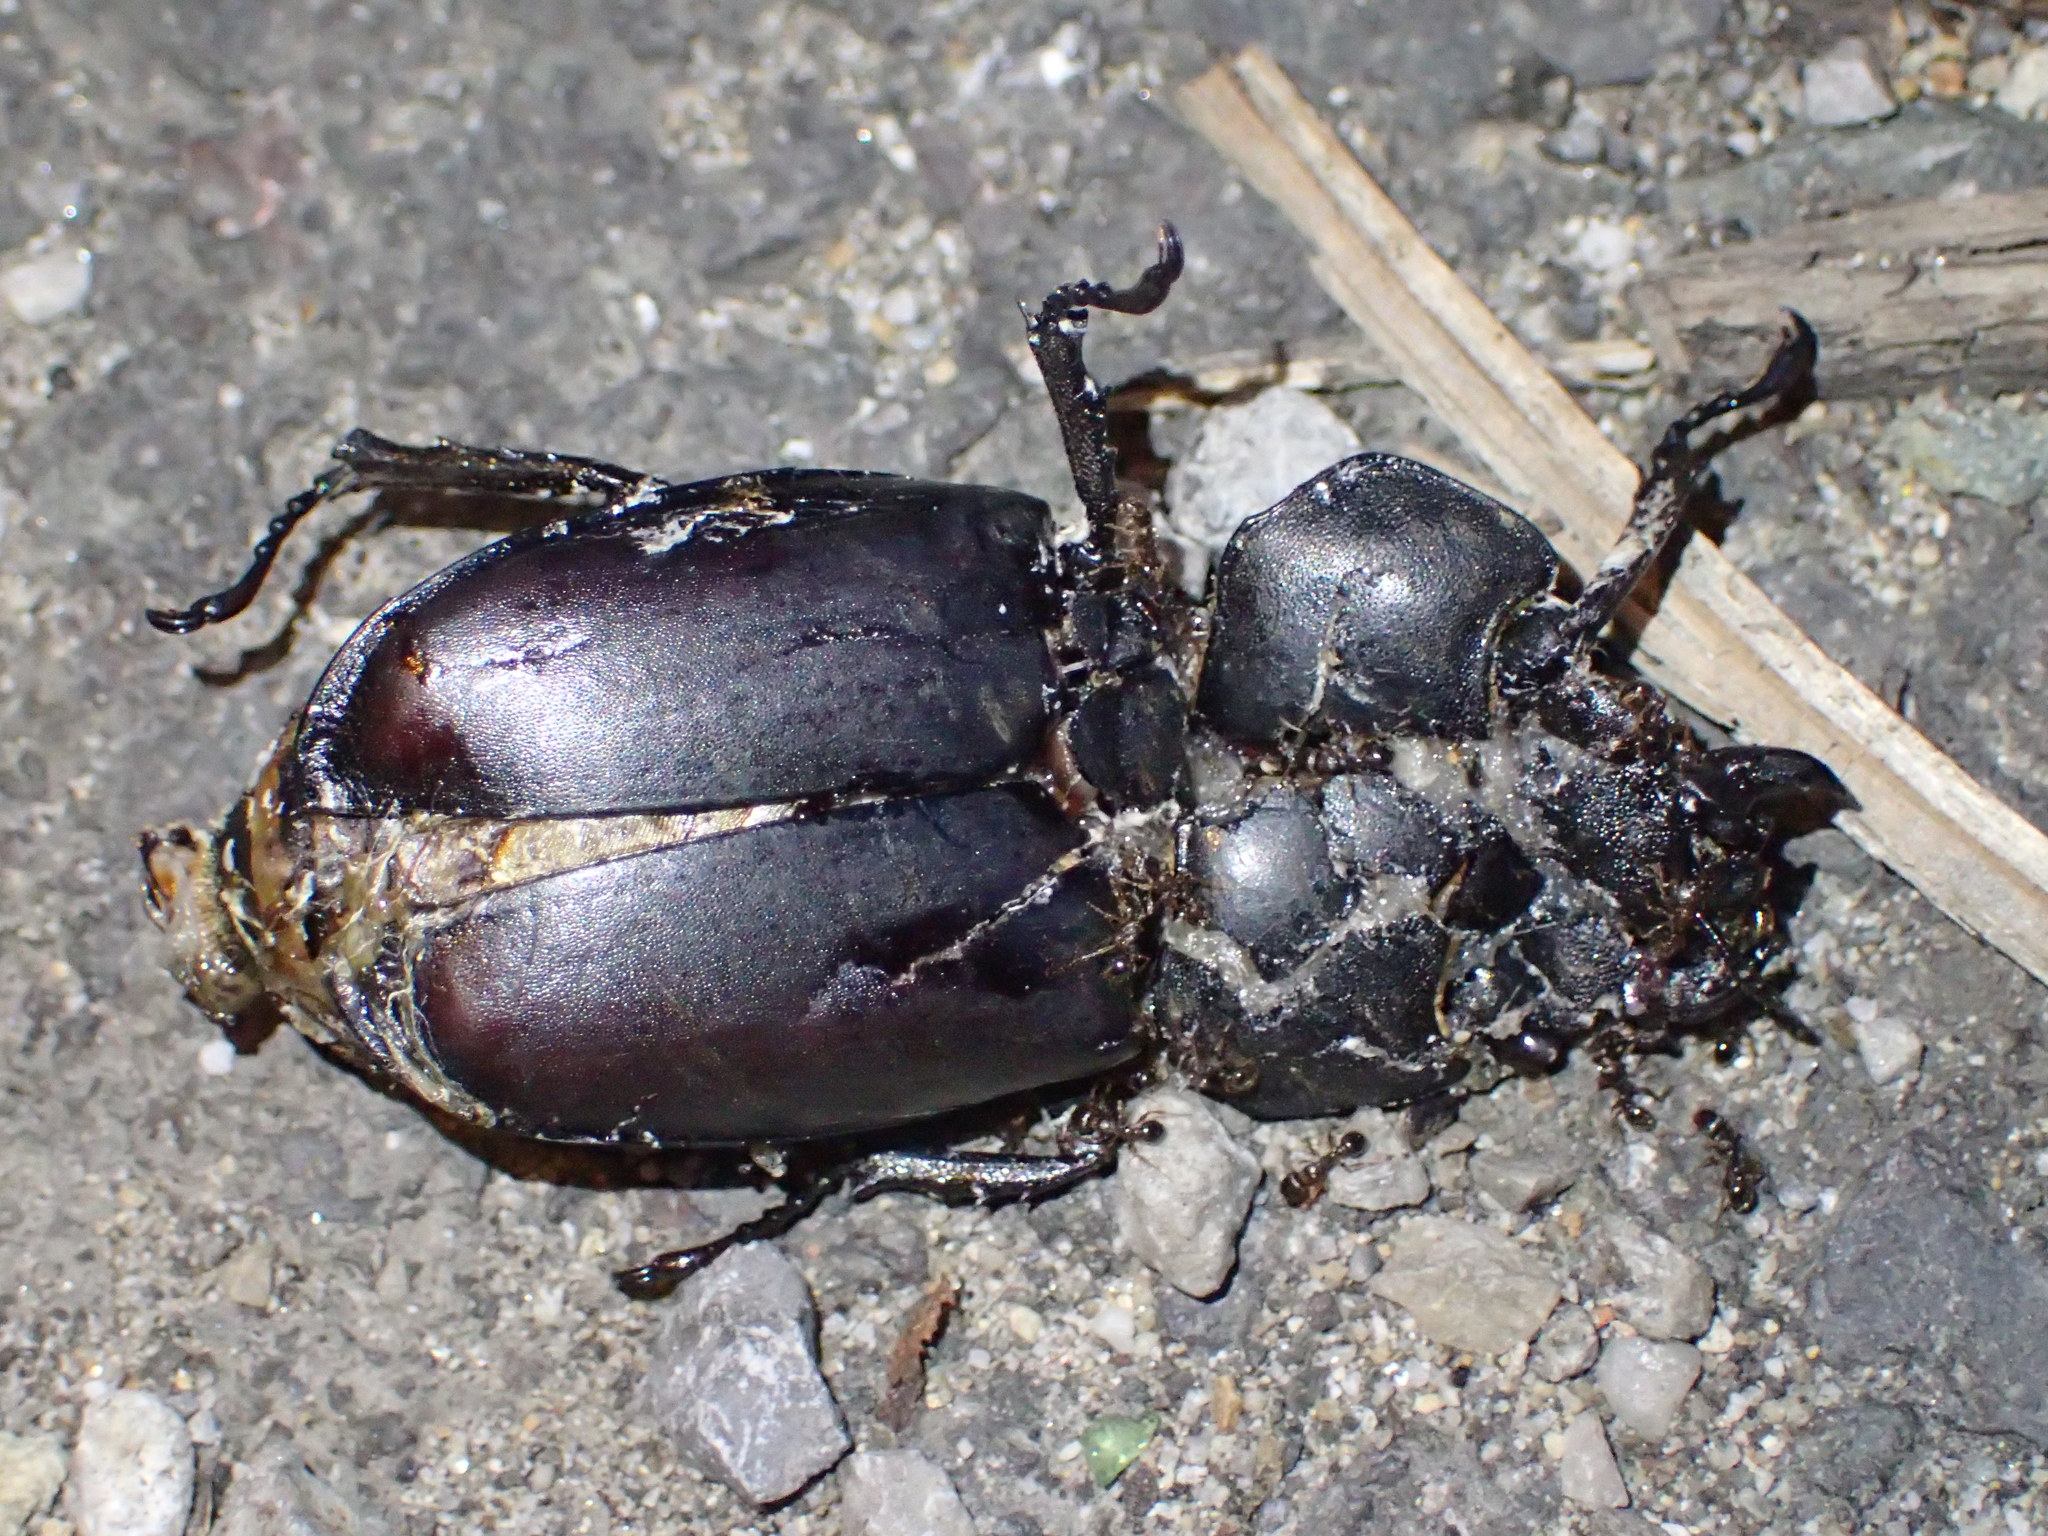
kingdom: Animalia
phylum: Arthropoda
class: Insecta
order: Coleoptera
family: Lucanidae
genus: Lucanus
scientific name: Lucanus cervus
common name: Stag beetle
